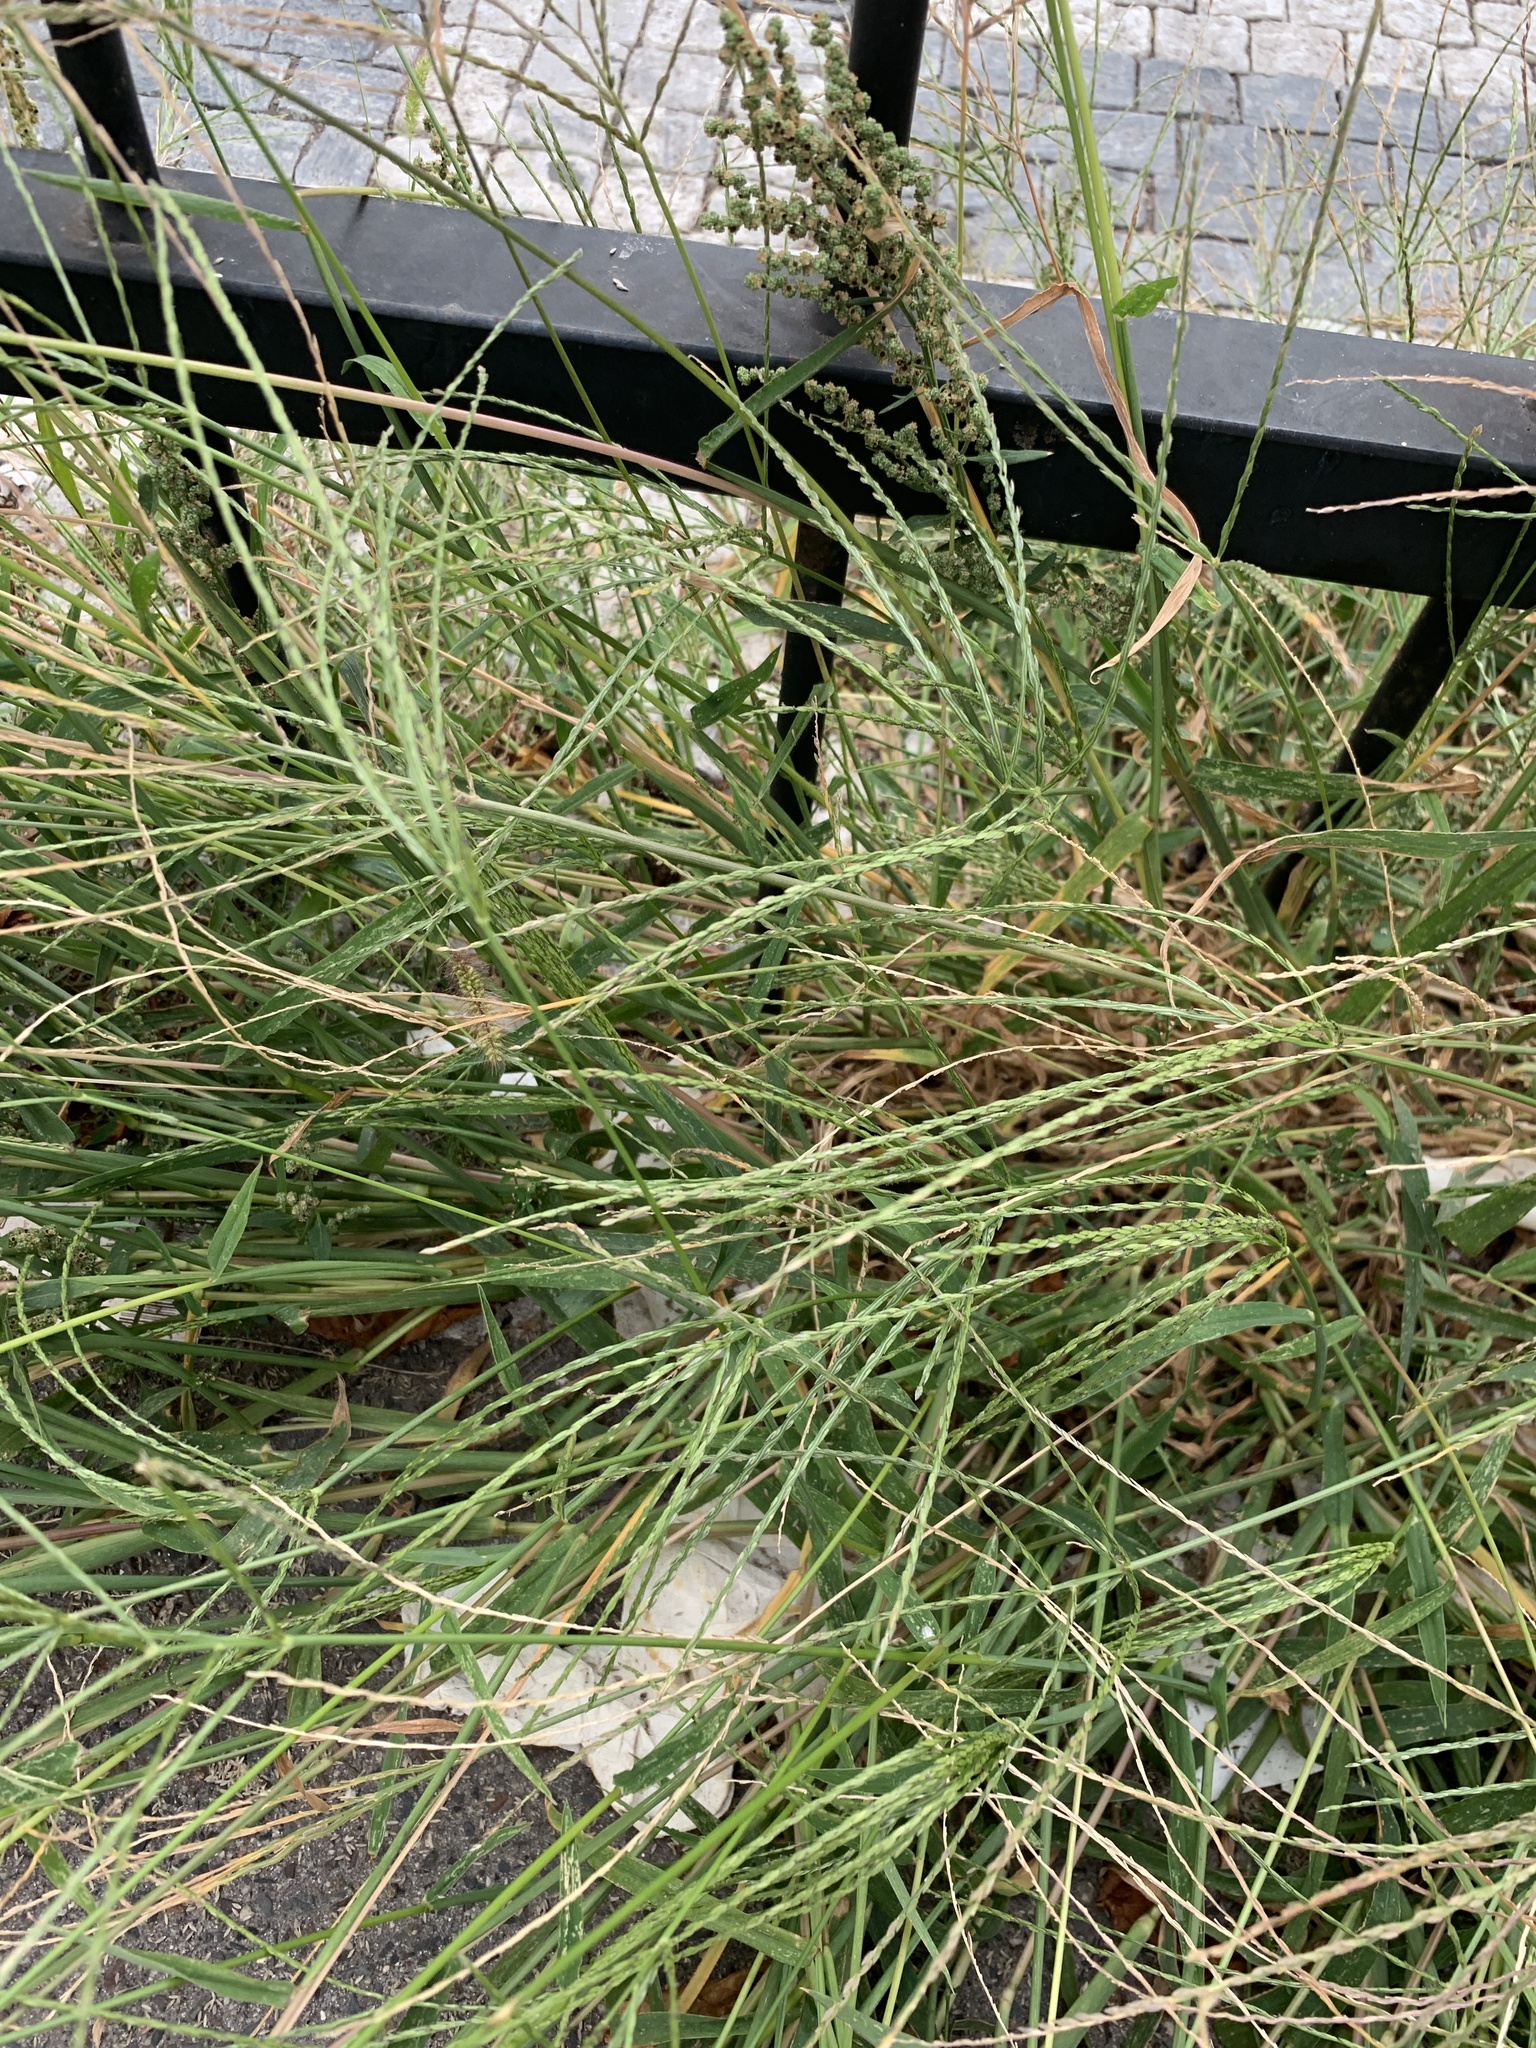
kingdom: Plantae
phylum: Tracheophyta
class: Liliopsida
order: Poales
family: Poaceae
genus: Digitaria
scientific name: Digitaria sanguinalis
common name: Hairy crabgrass
